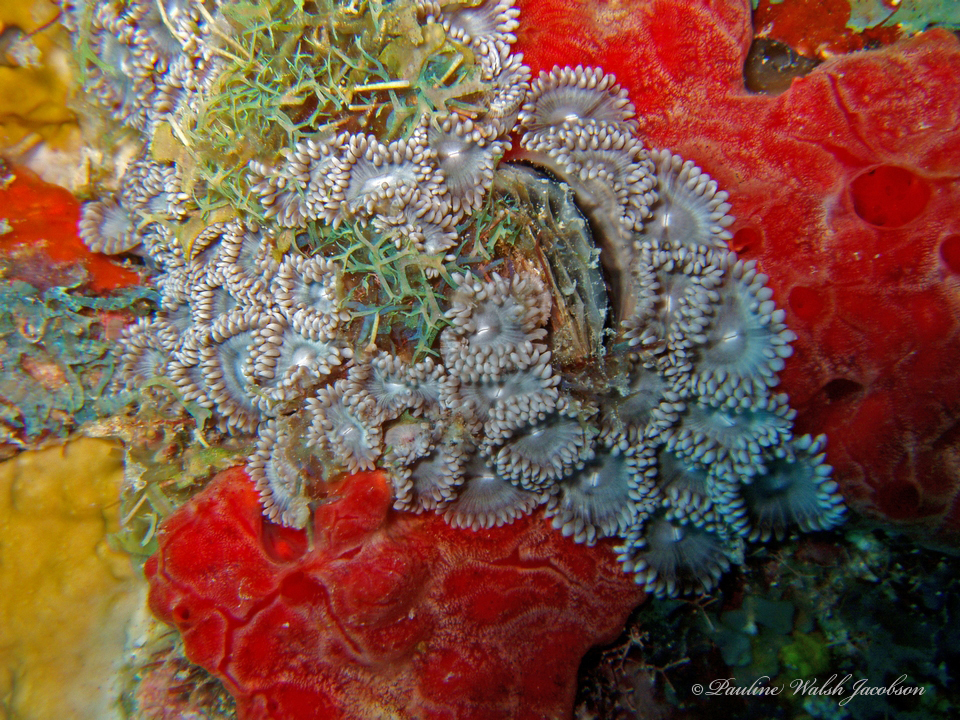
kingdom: Animalia
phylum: Cnidaria
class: Anthozoa
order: Zoantharia
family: Zoanthidae
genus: Zoanthus
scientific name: Zoanthus pulchellus
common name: Mat zoanthid
